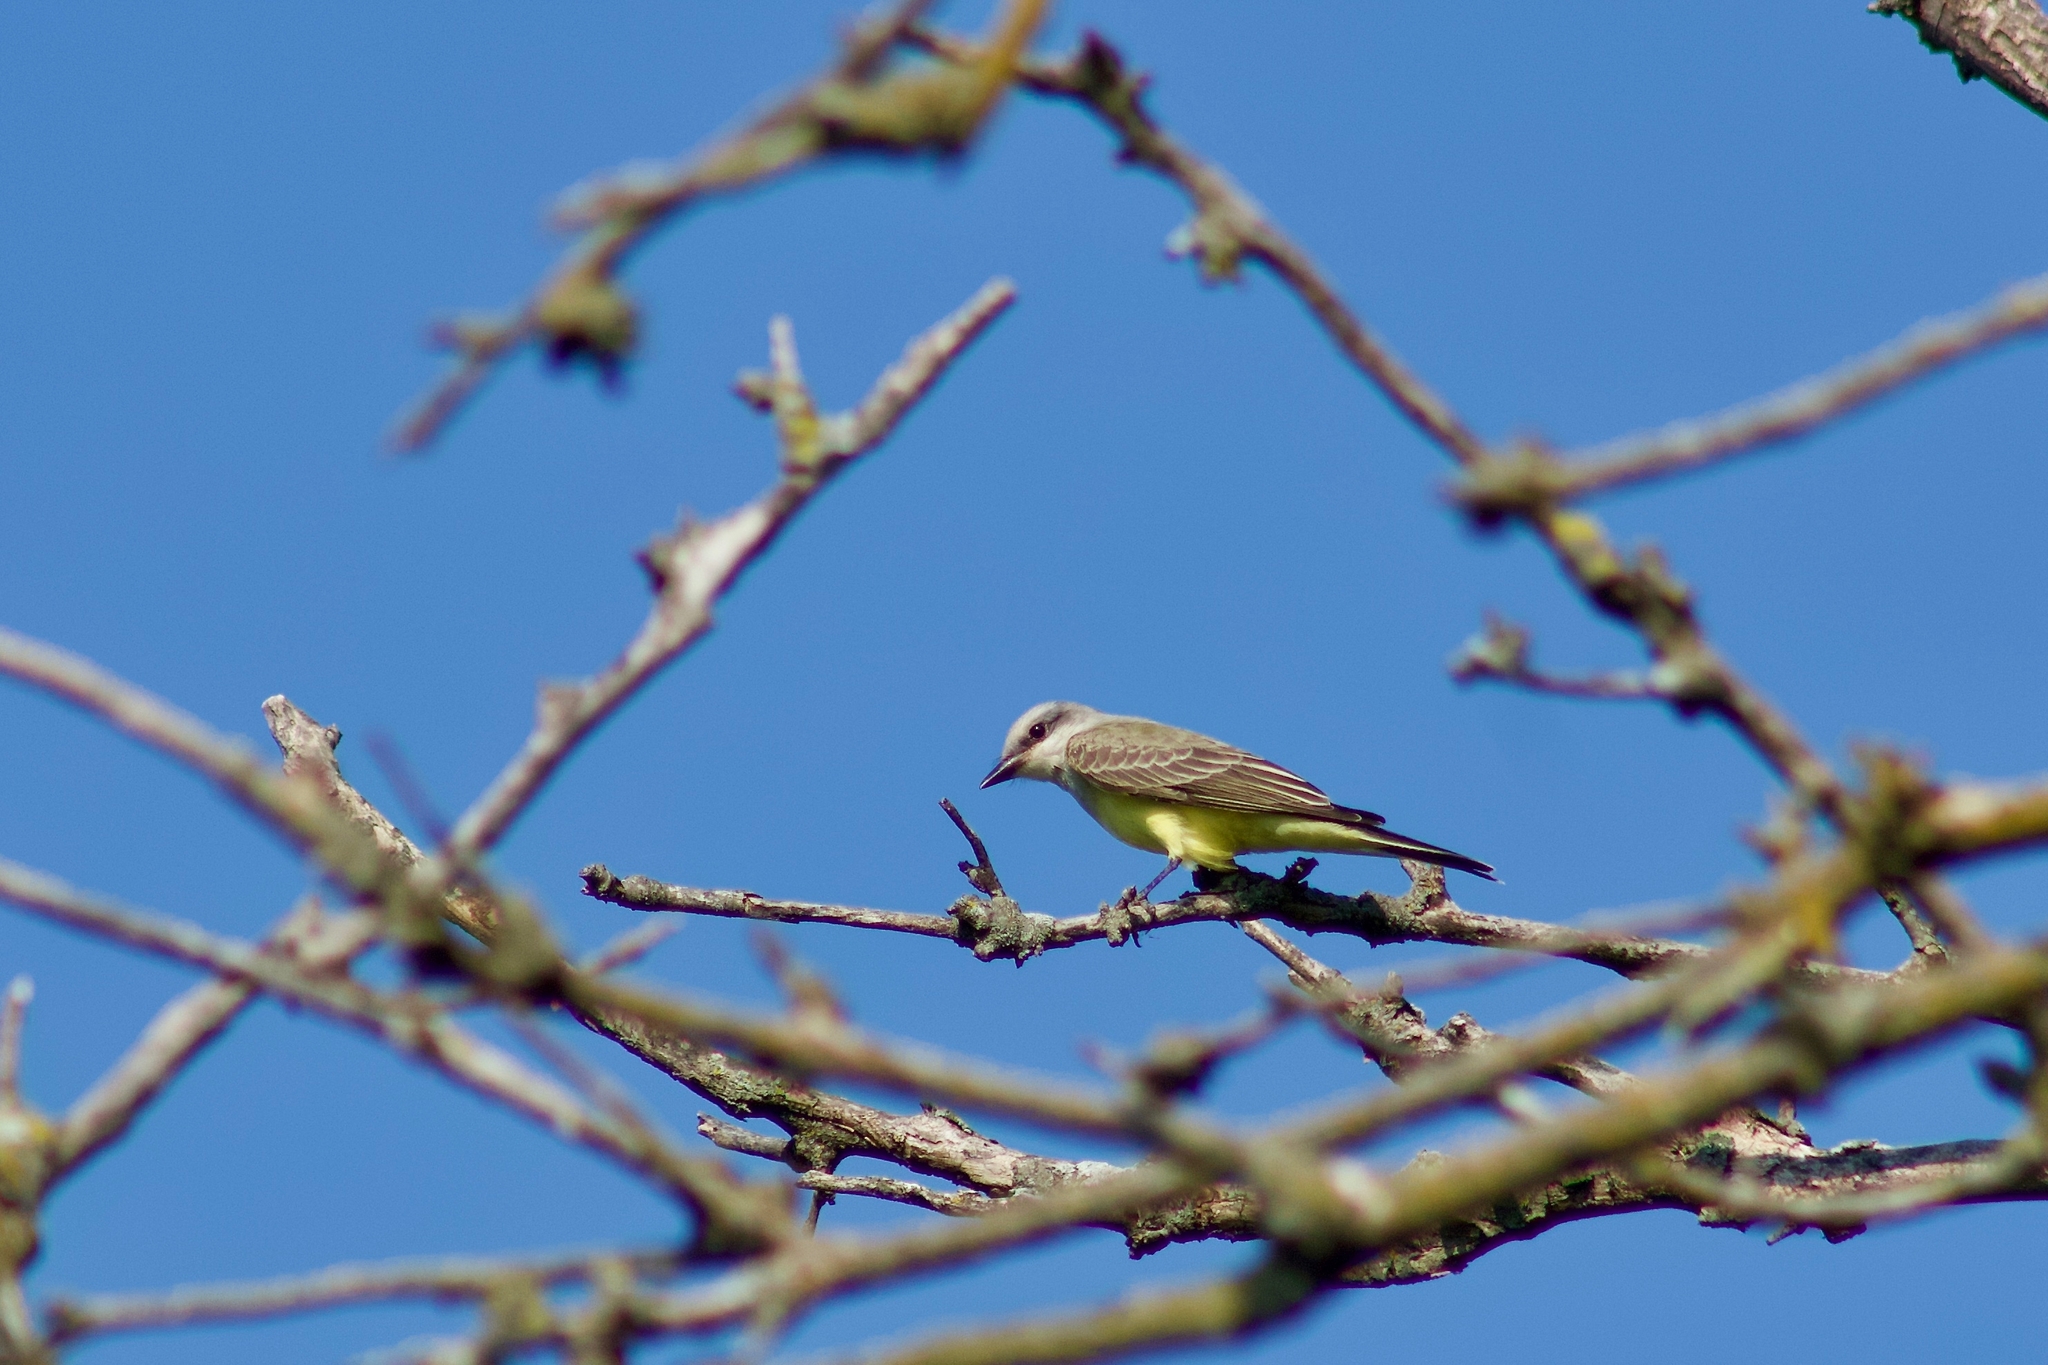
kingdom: Animalia
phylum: Chordata
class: Aves
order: Passeriformes
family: Tyrannidae
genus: Tyrannus
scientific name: Tyrannus verticalis
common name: Western kingbird
